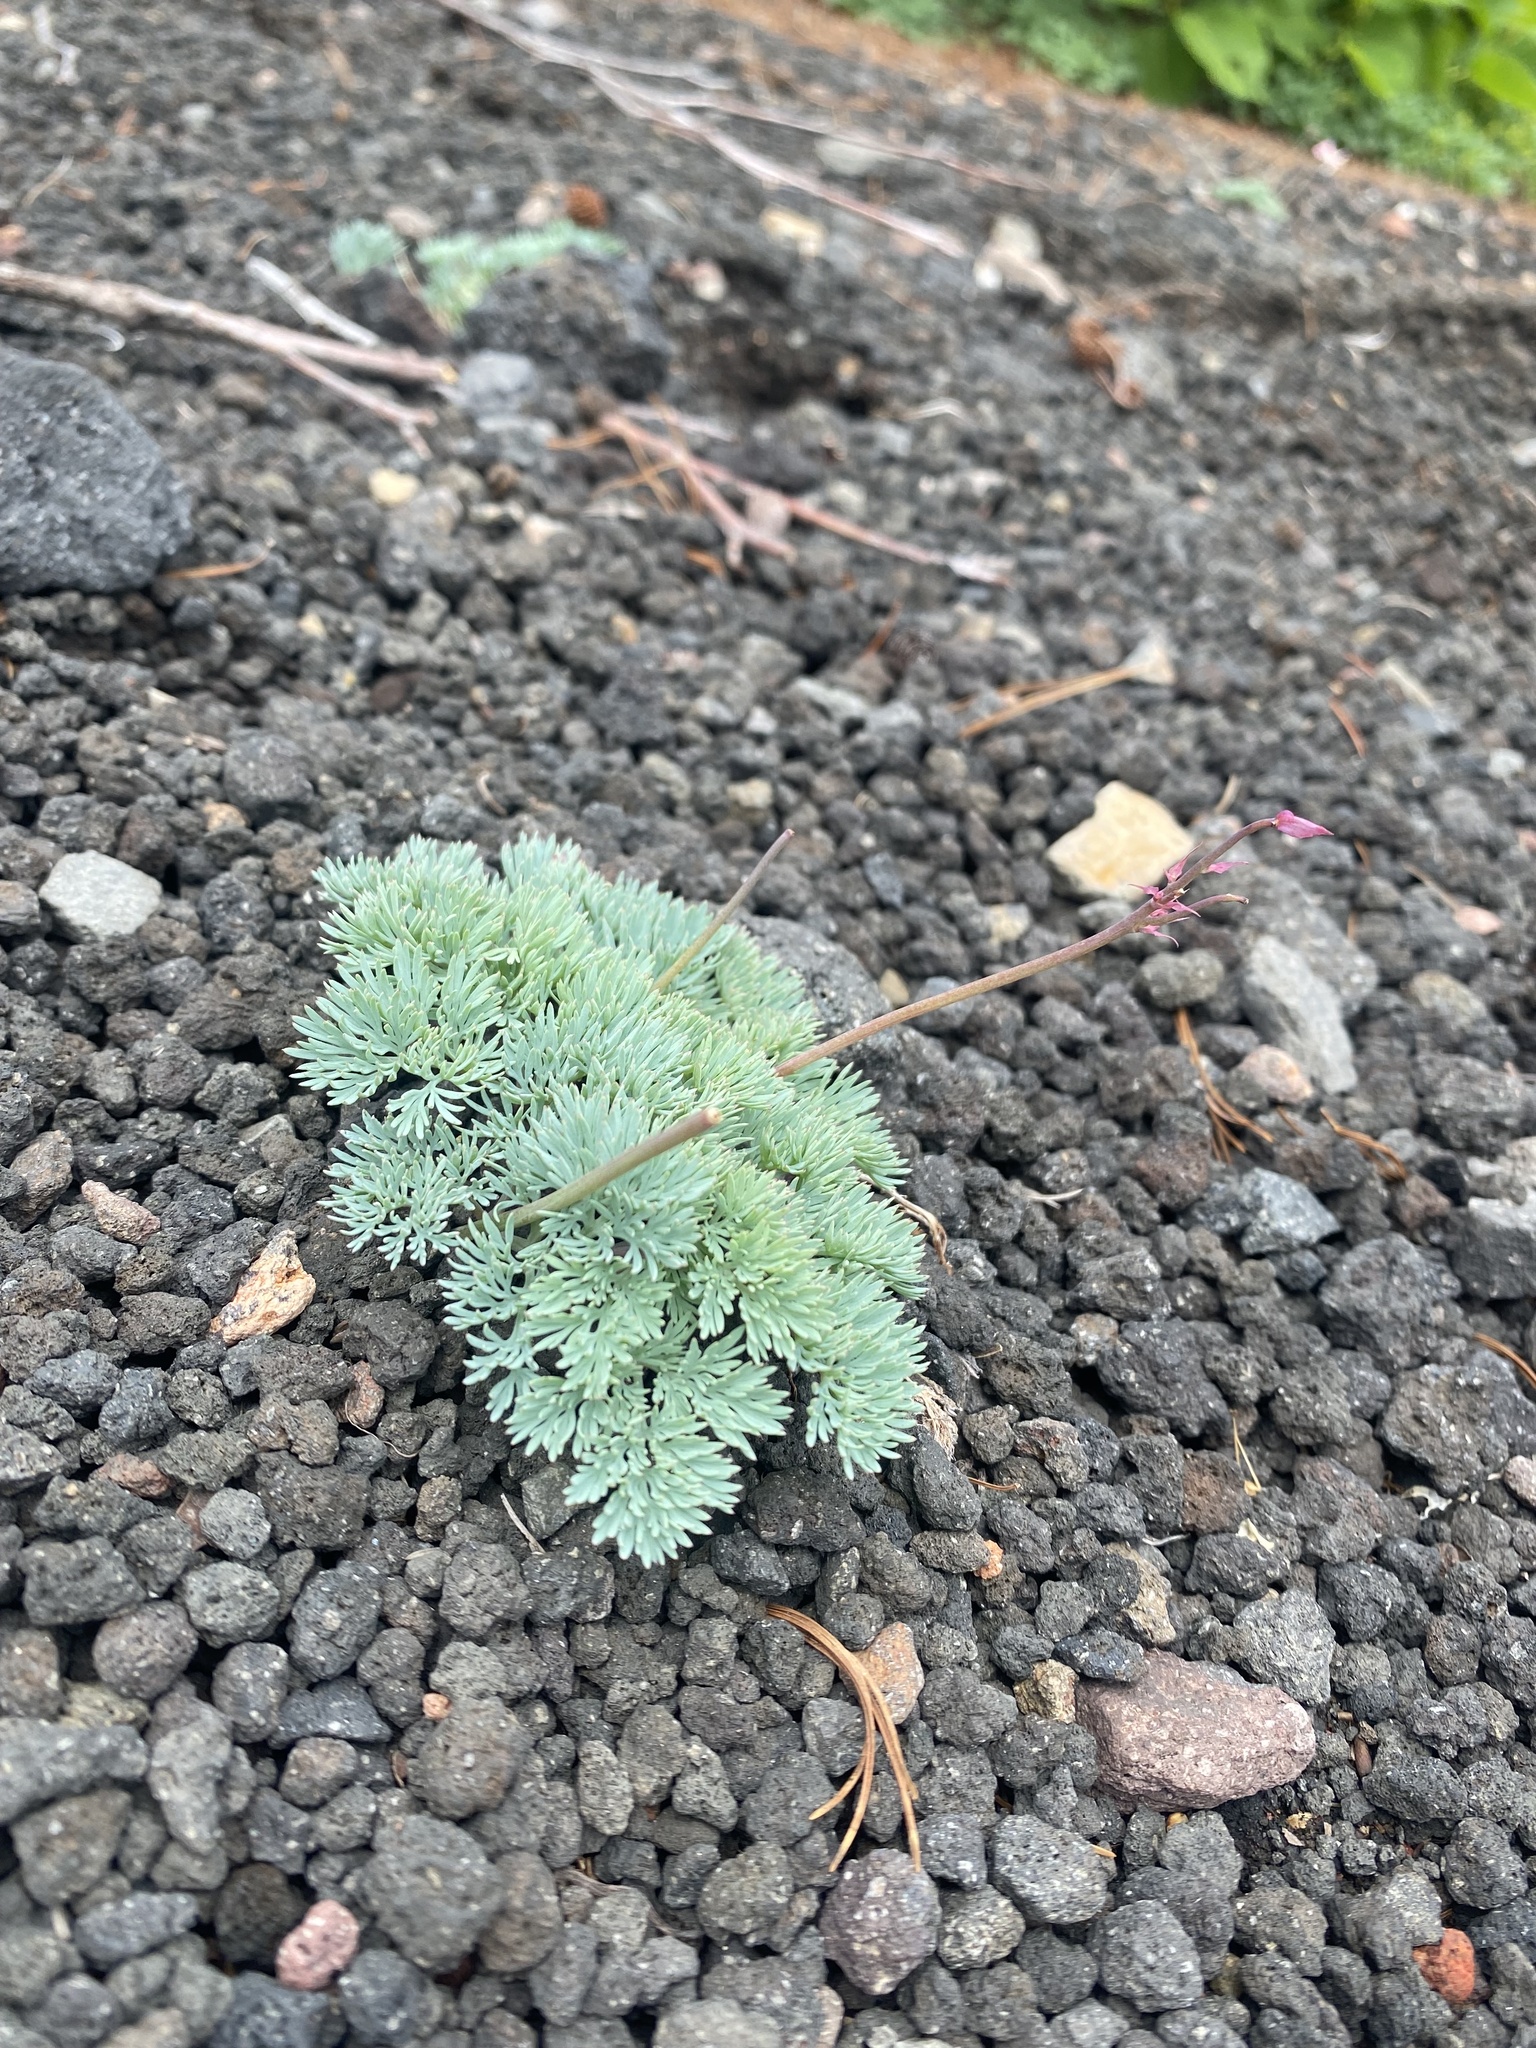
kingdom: Plantae
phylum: Tracheophyta
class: Magnoliopsida
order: Ranunculales
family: Papaveraceae
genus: Dicentra
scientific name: Dicentra peregrina
